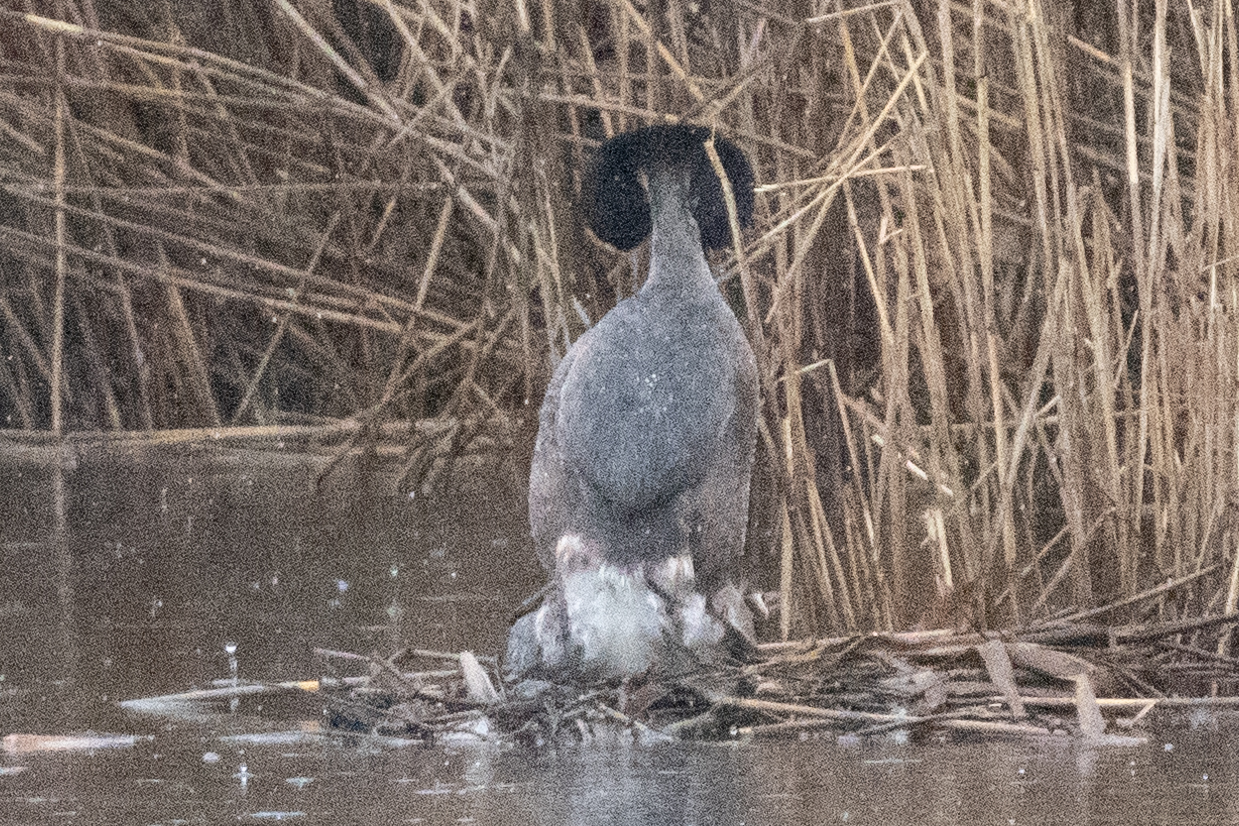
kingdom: Animalia
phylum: Chordata
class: Aves
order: Podicipediformes
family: Podicipedidae
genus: Podiceps
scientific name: Podiceps cristatus
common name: Great crested grebe
